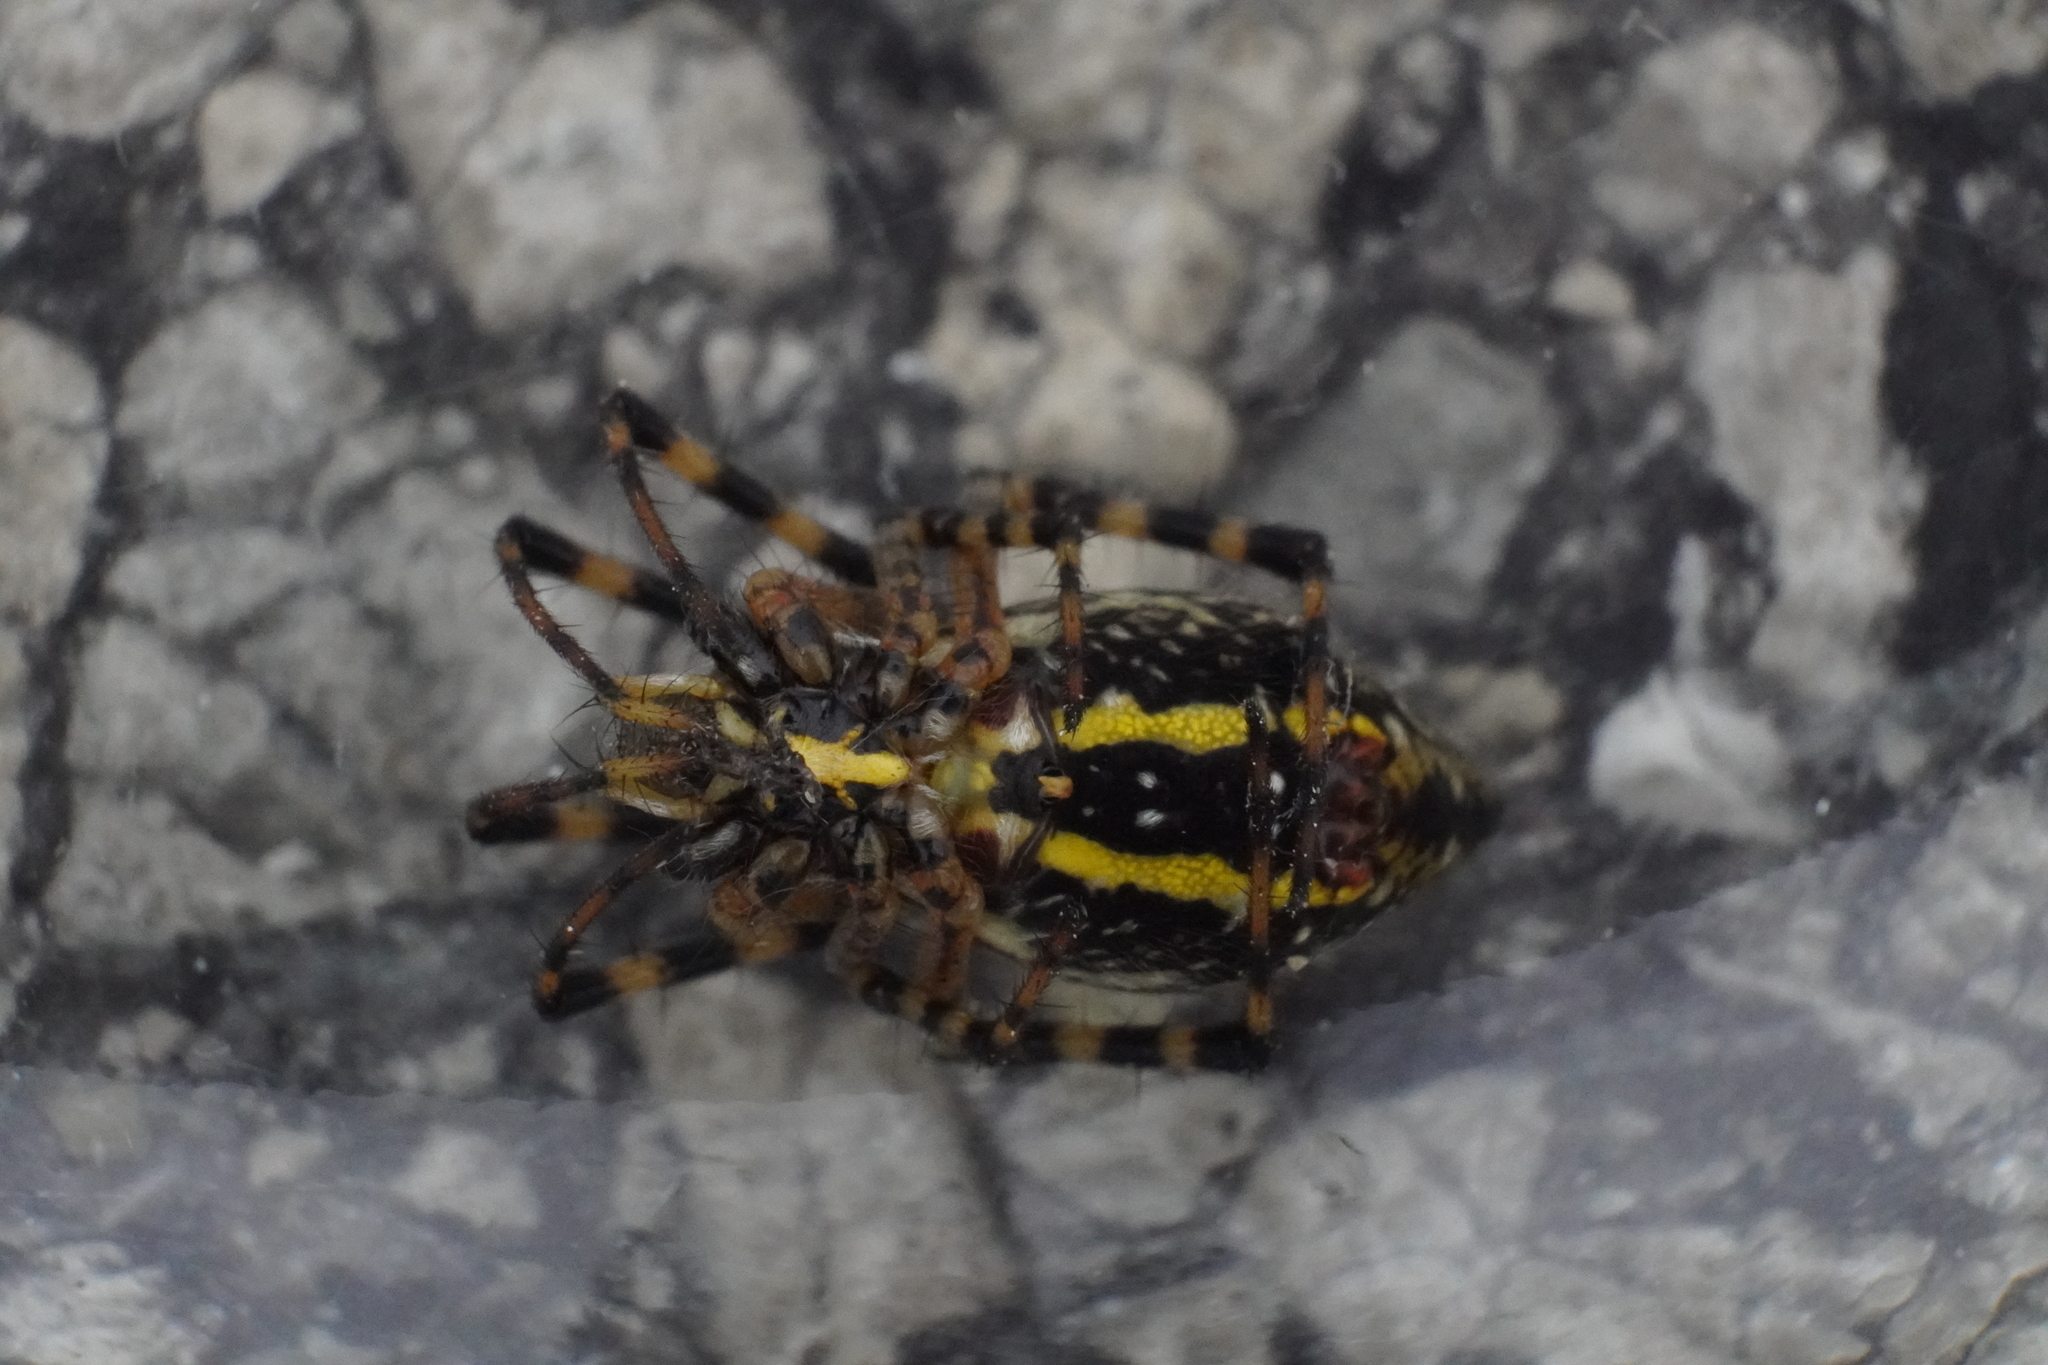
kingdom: Animalia
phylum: Arthropoda
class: Arachnida
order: Araneae
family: Araneidae
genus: Argiope
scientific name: Argiope trifasciata
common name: Banded garden spider
